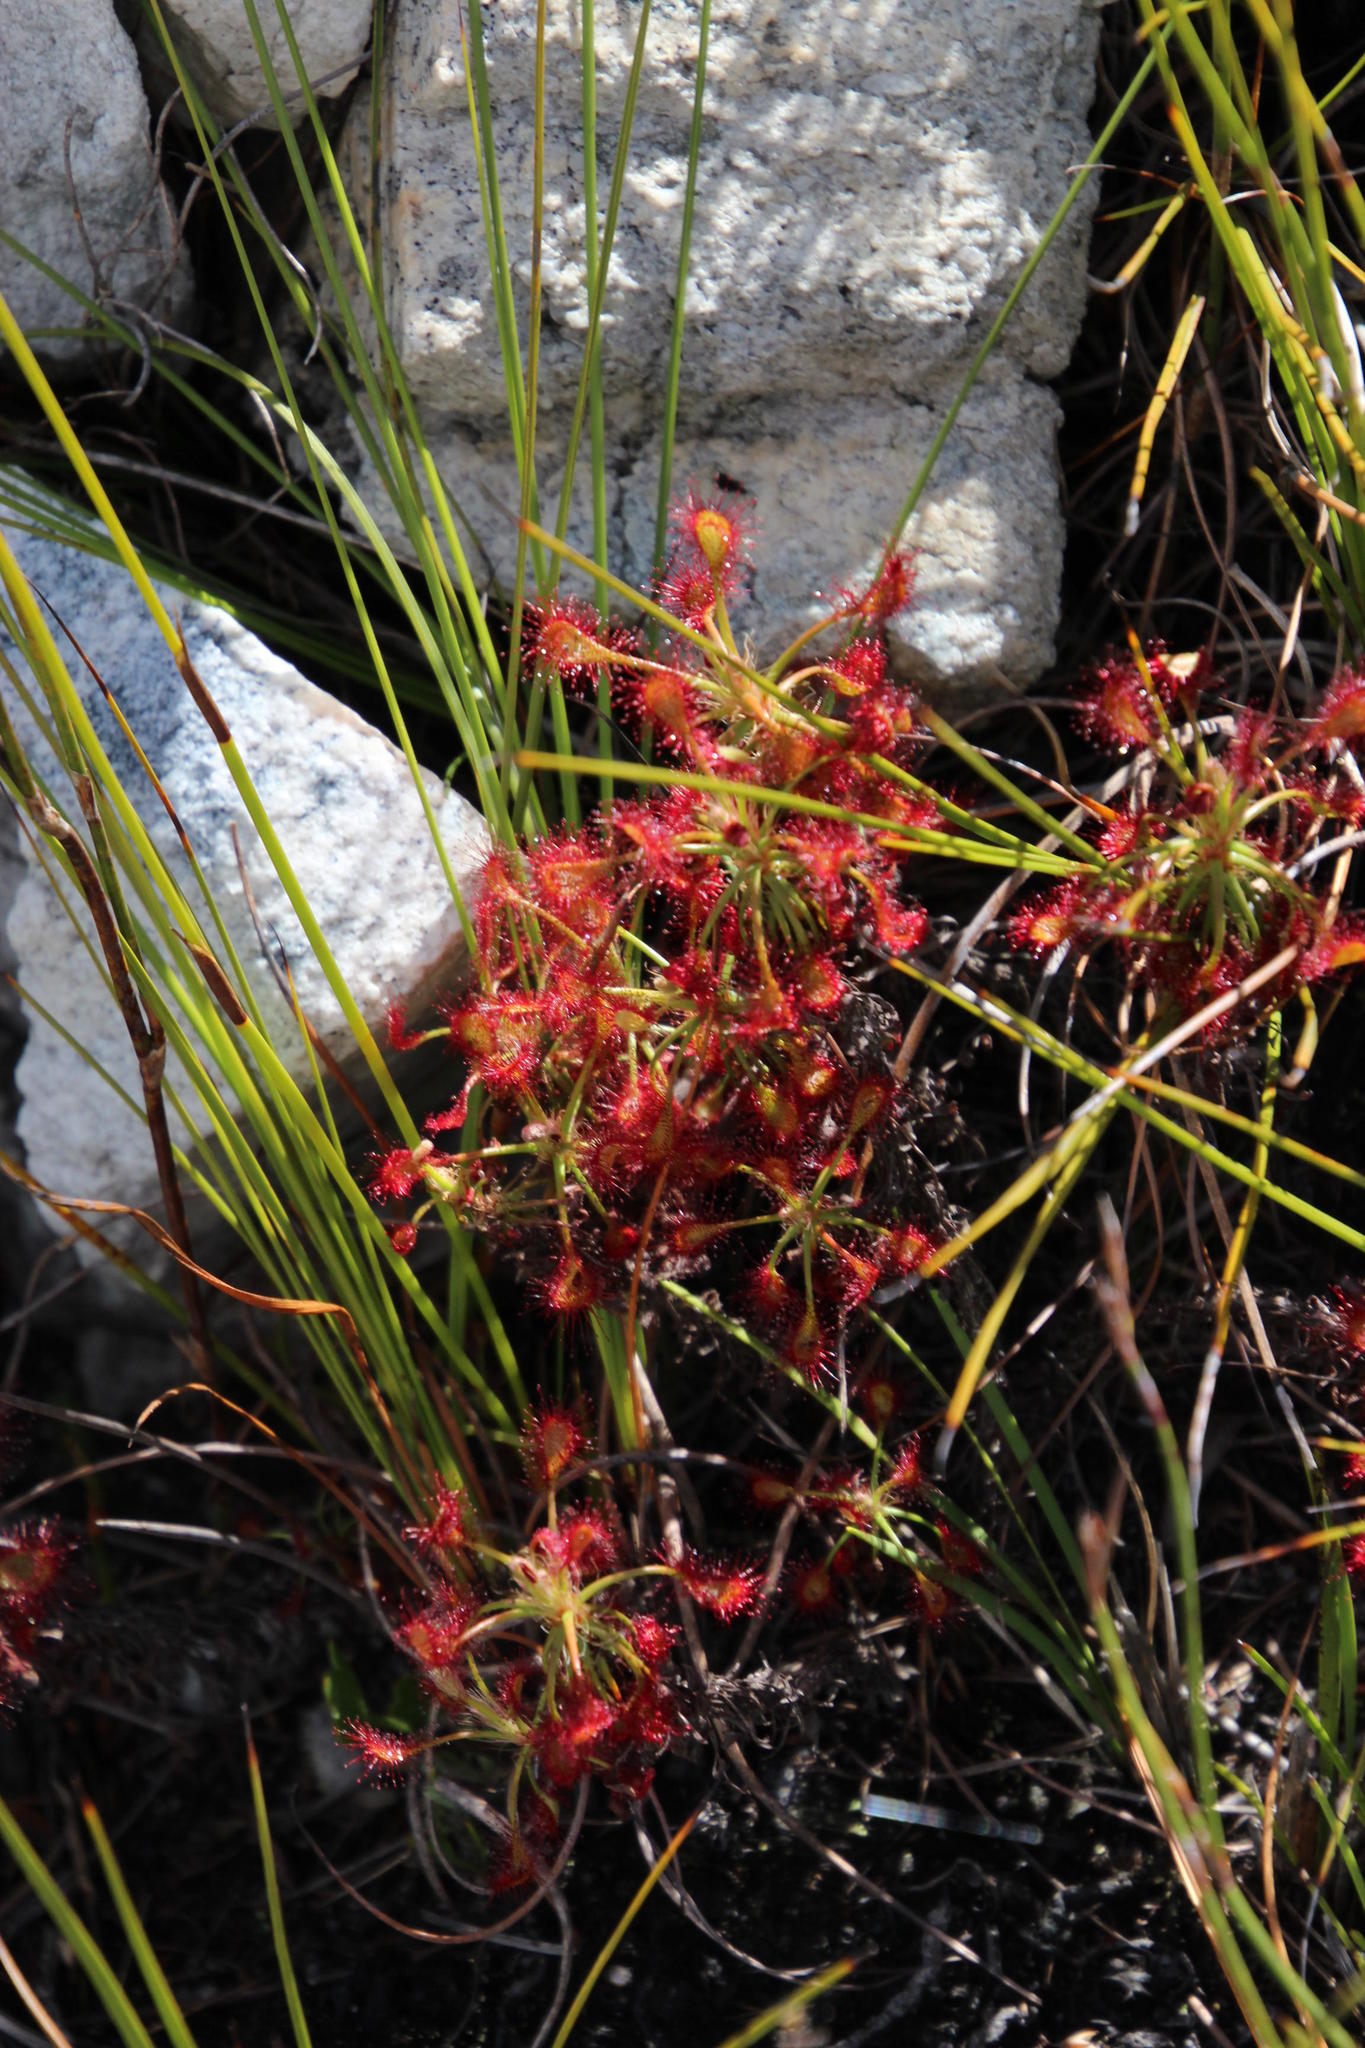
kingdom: Plantae
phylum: Tracheophyta
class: Magnoliopsida
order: Caryophyllales
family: Droseraceae
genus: Drosera
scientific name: Drosera glabripes
